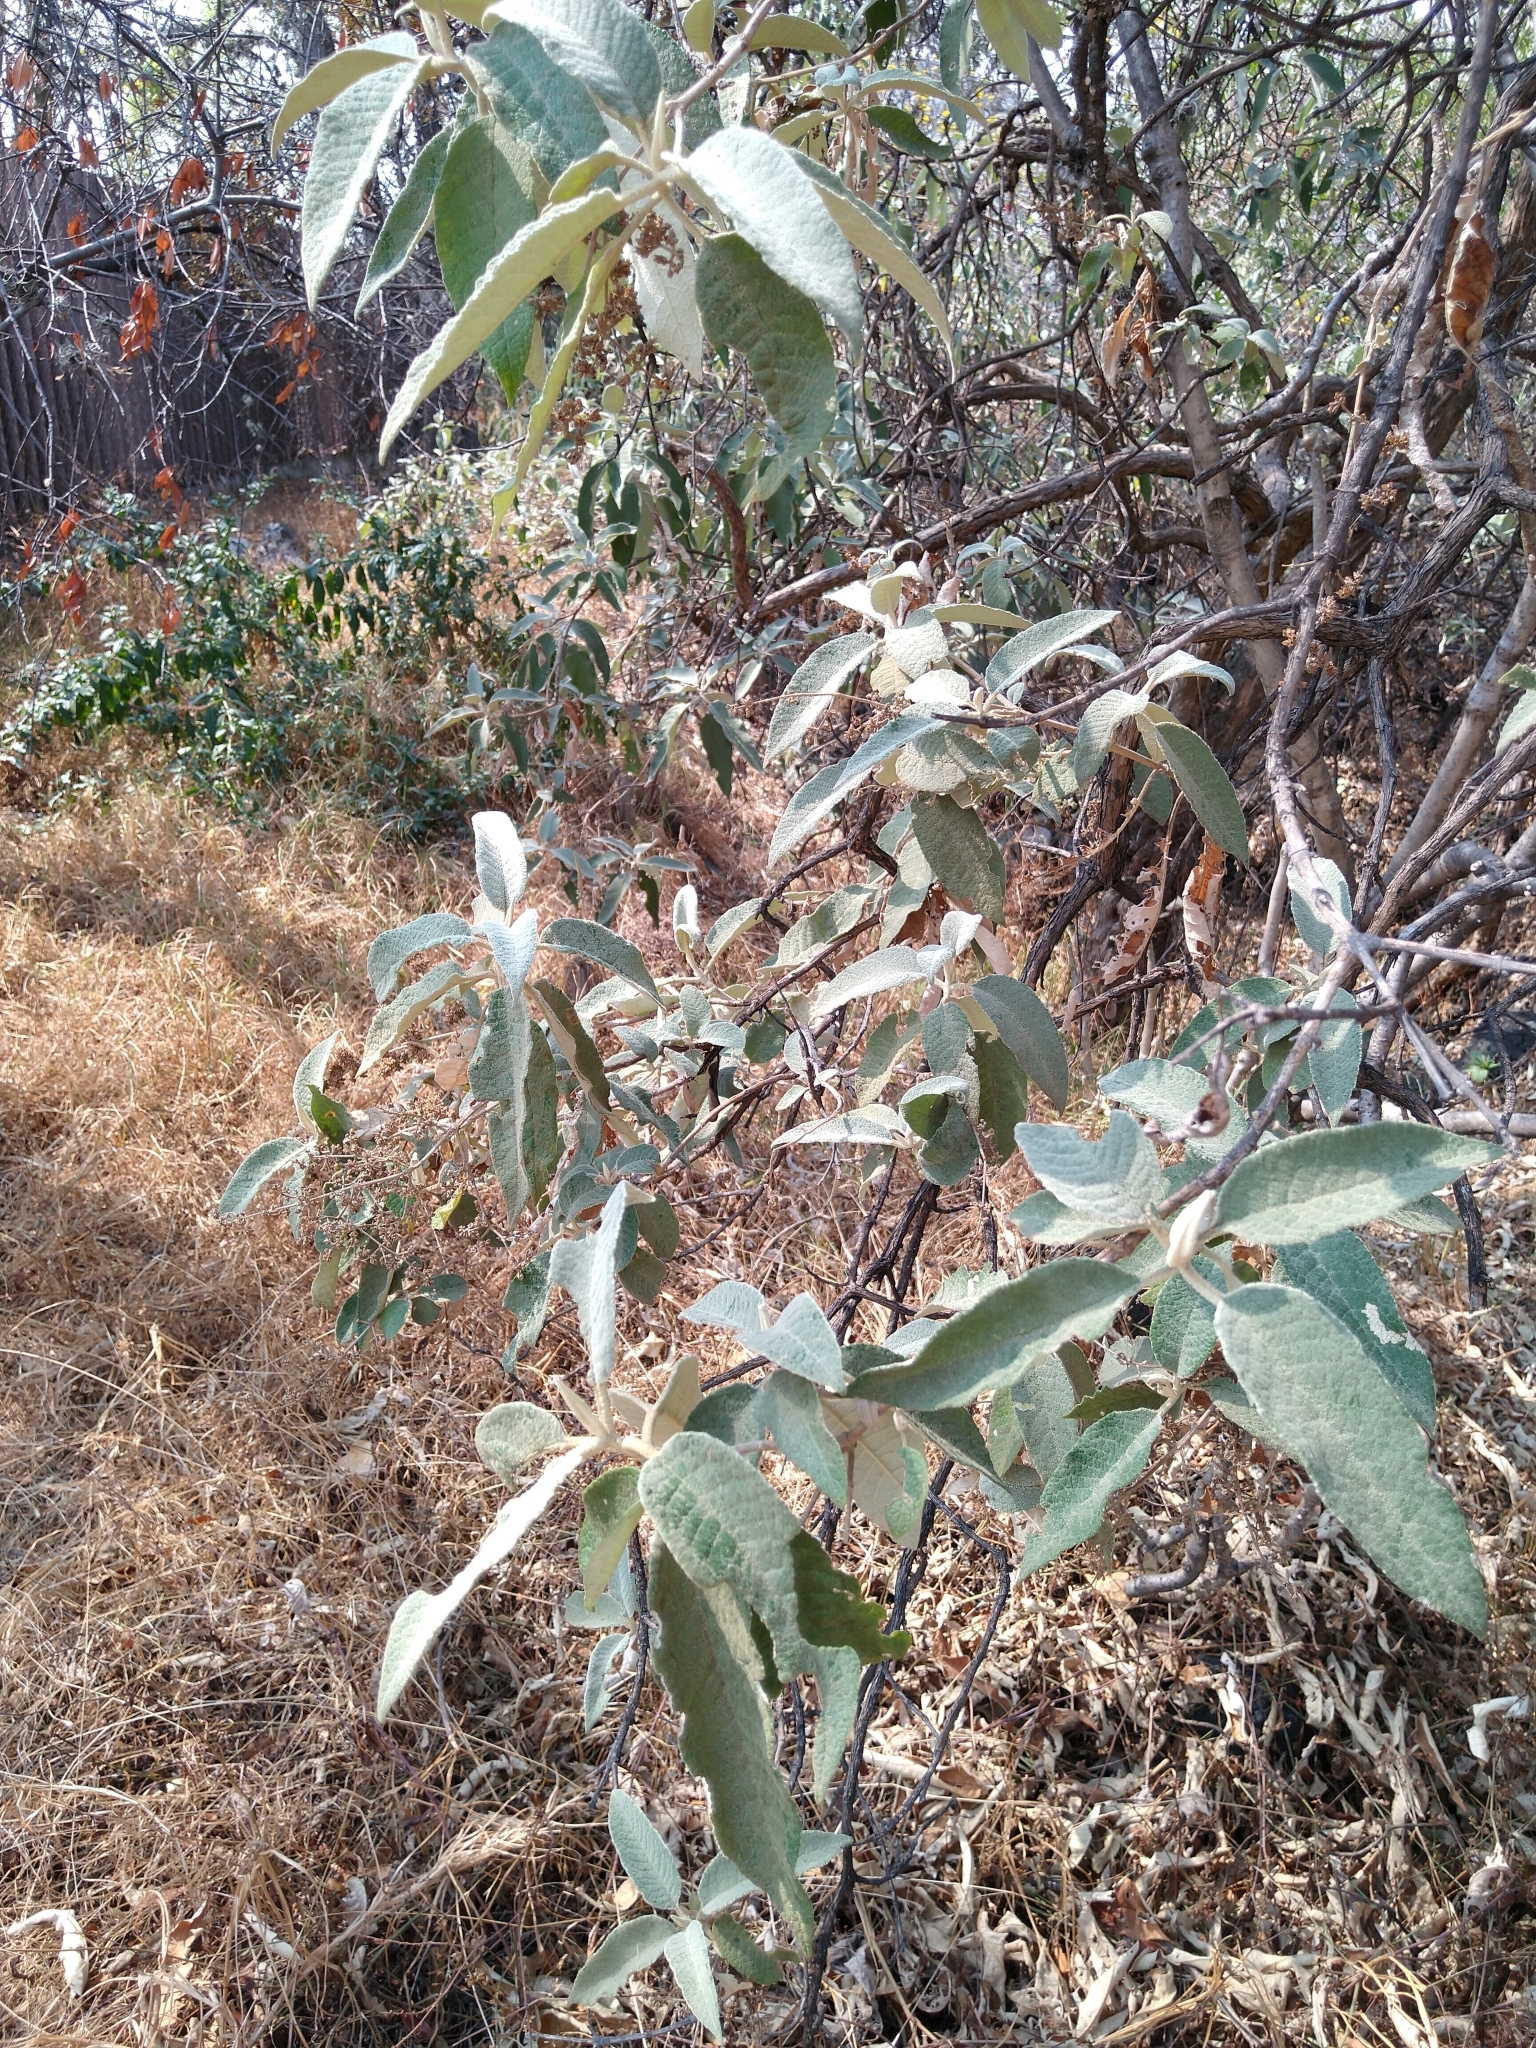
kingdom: Plantae
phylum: Tracheophyta
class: Magnoliopsida
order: Lamiales
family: Scrophulariaceae
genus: Buddleja
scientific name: Buddleja cordata
